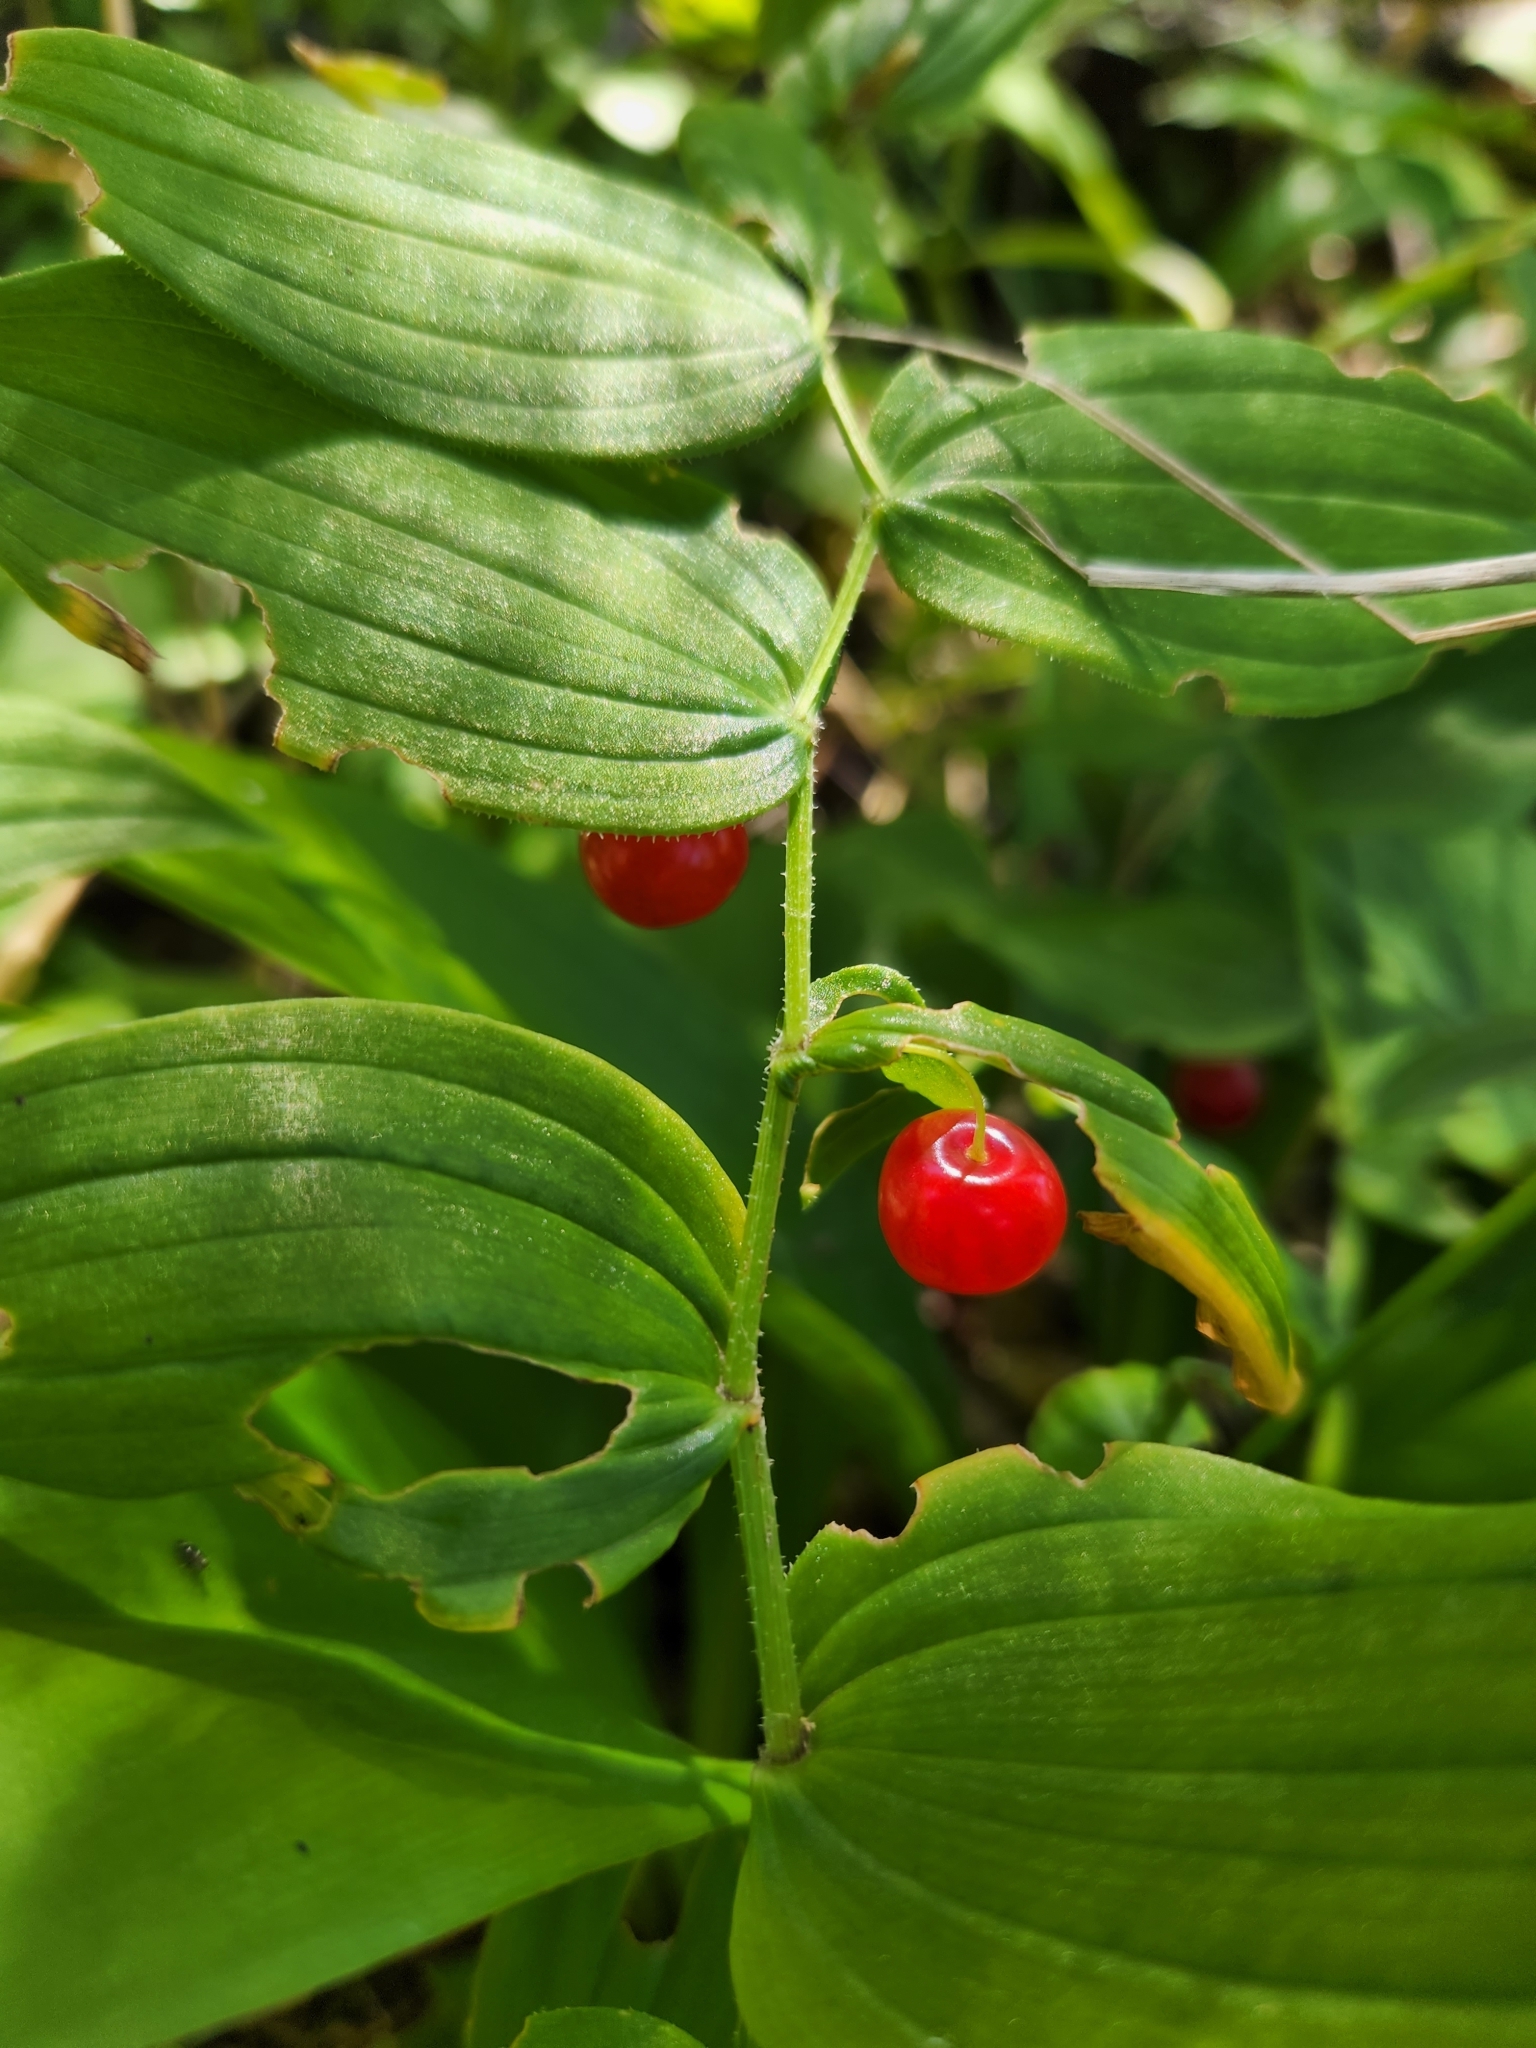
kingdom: Plantae
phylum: Tracheophyta
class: Liliopsida
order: Liliales
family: Liliaceae
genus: Streptopus
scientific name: Streptopus lanceolatus
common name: Rose mandarin
